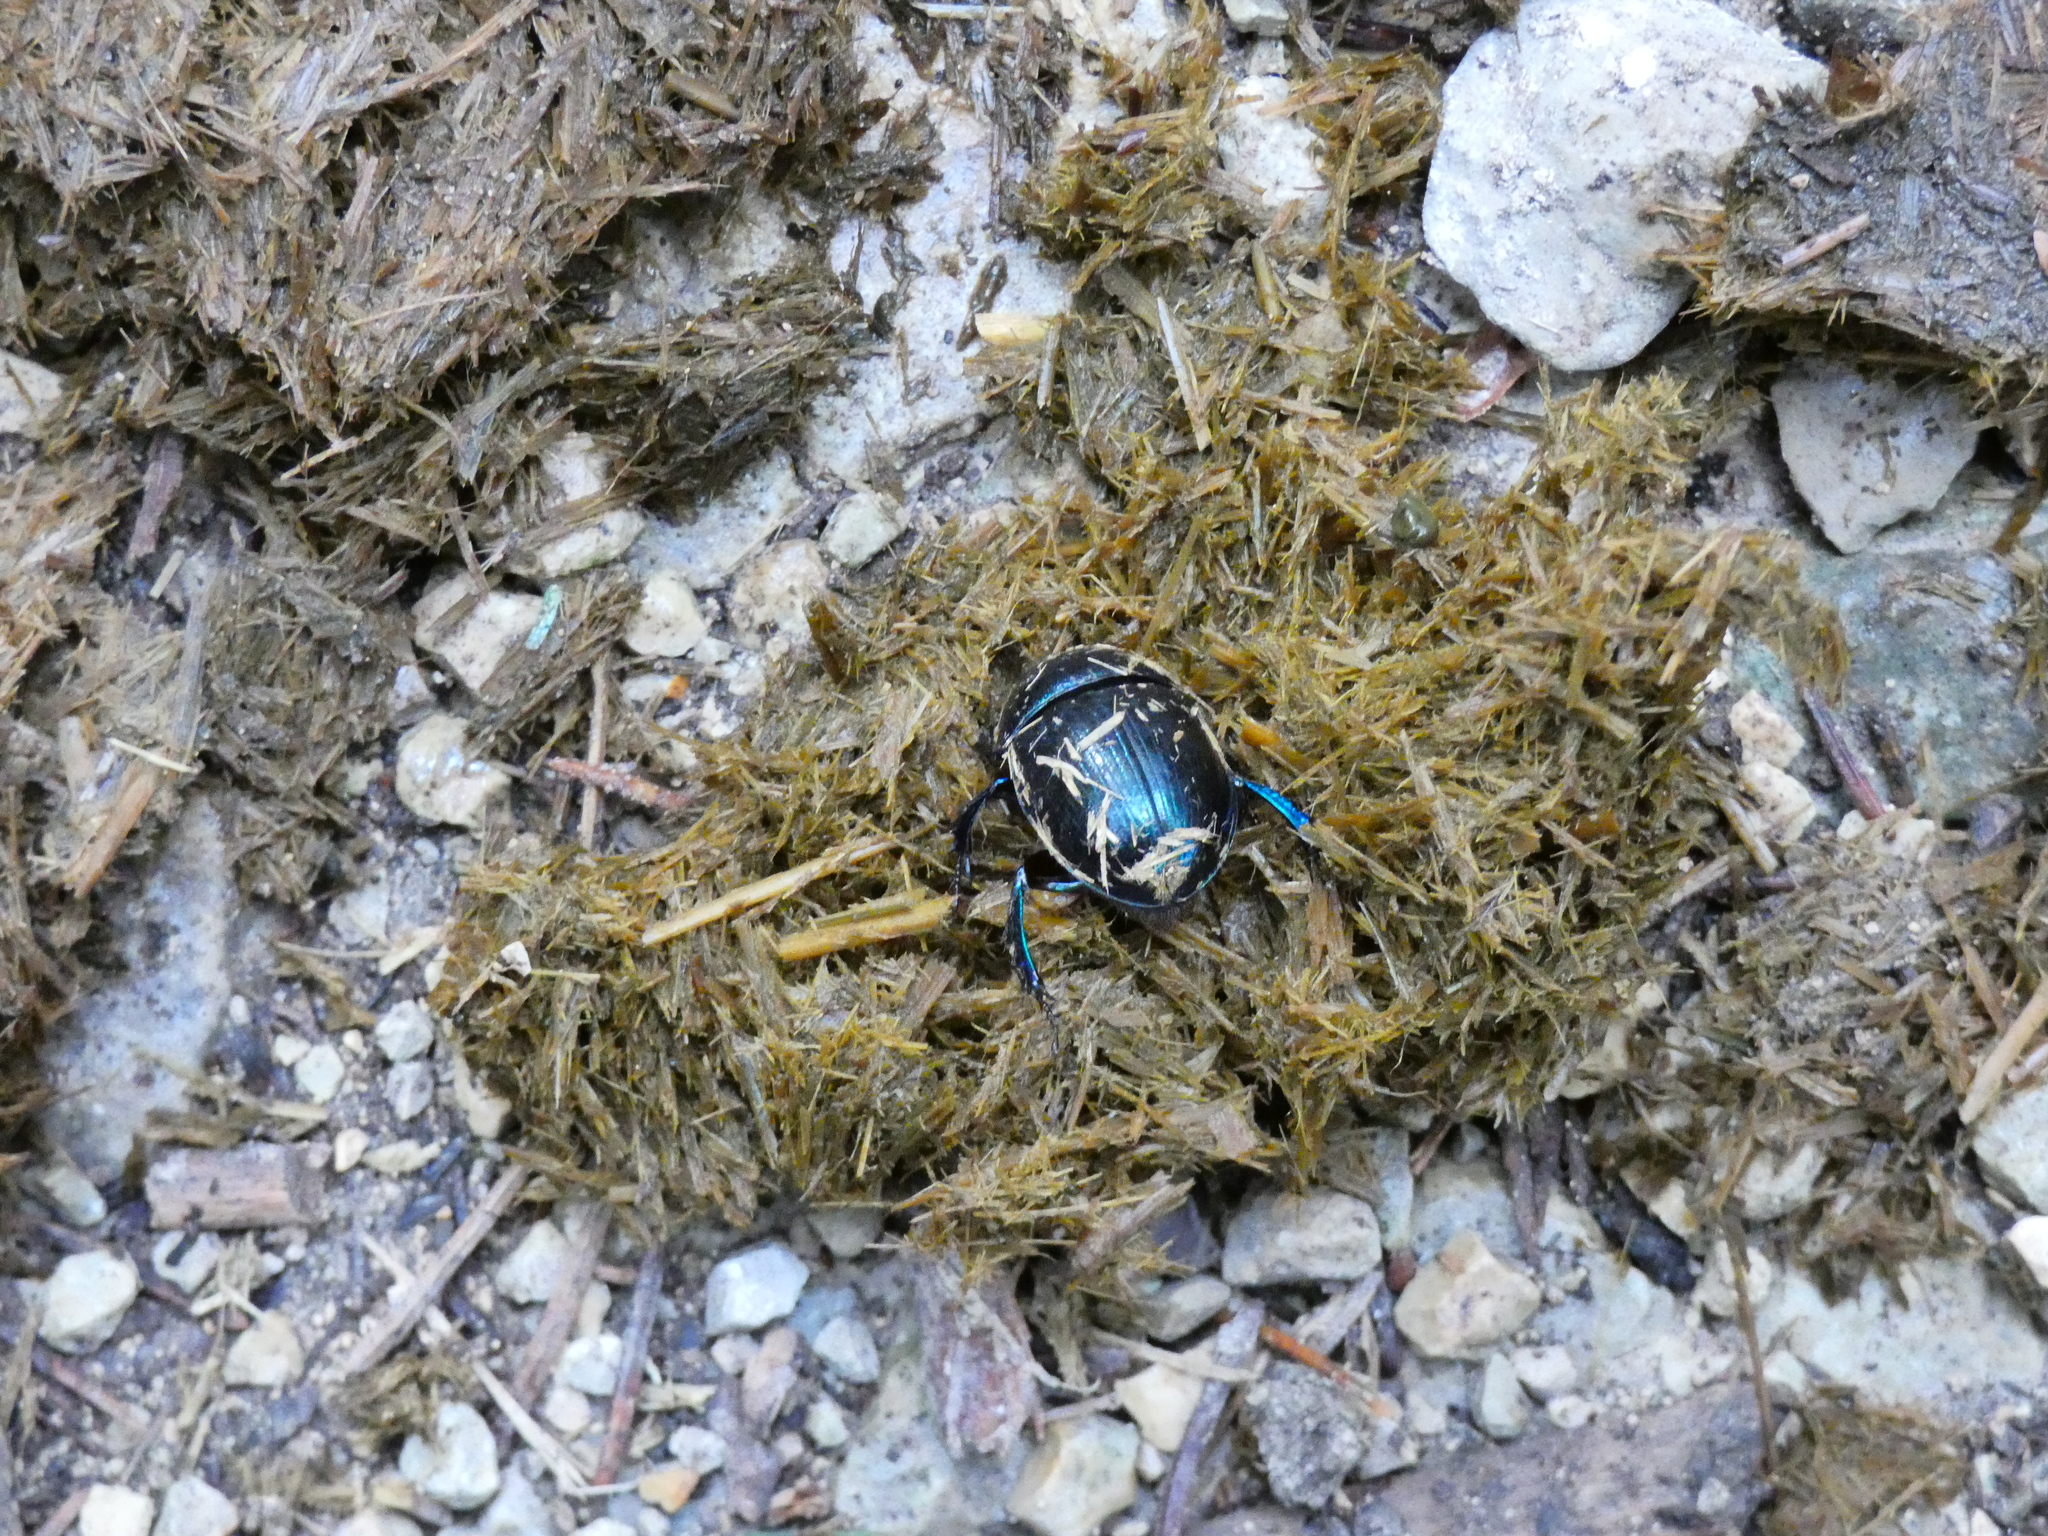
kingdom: Animalia
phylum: Arthropoda
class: Insecta
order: Coleoptera
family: Geotrupidae
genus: Anoplotrupes
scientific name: Anoplotrupes stercorosus
